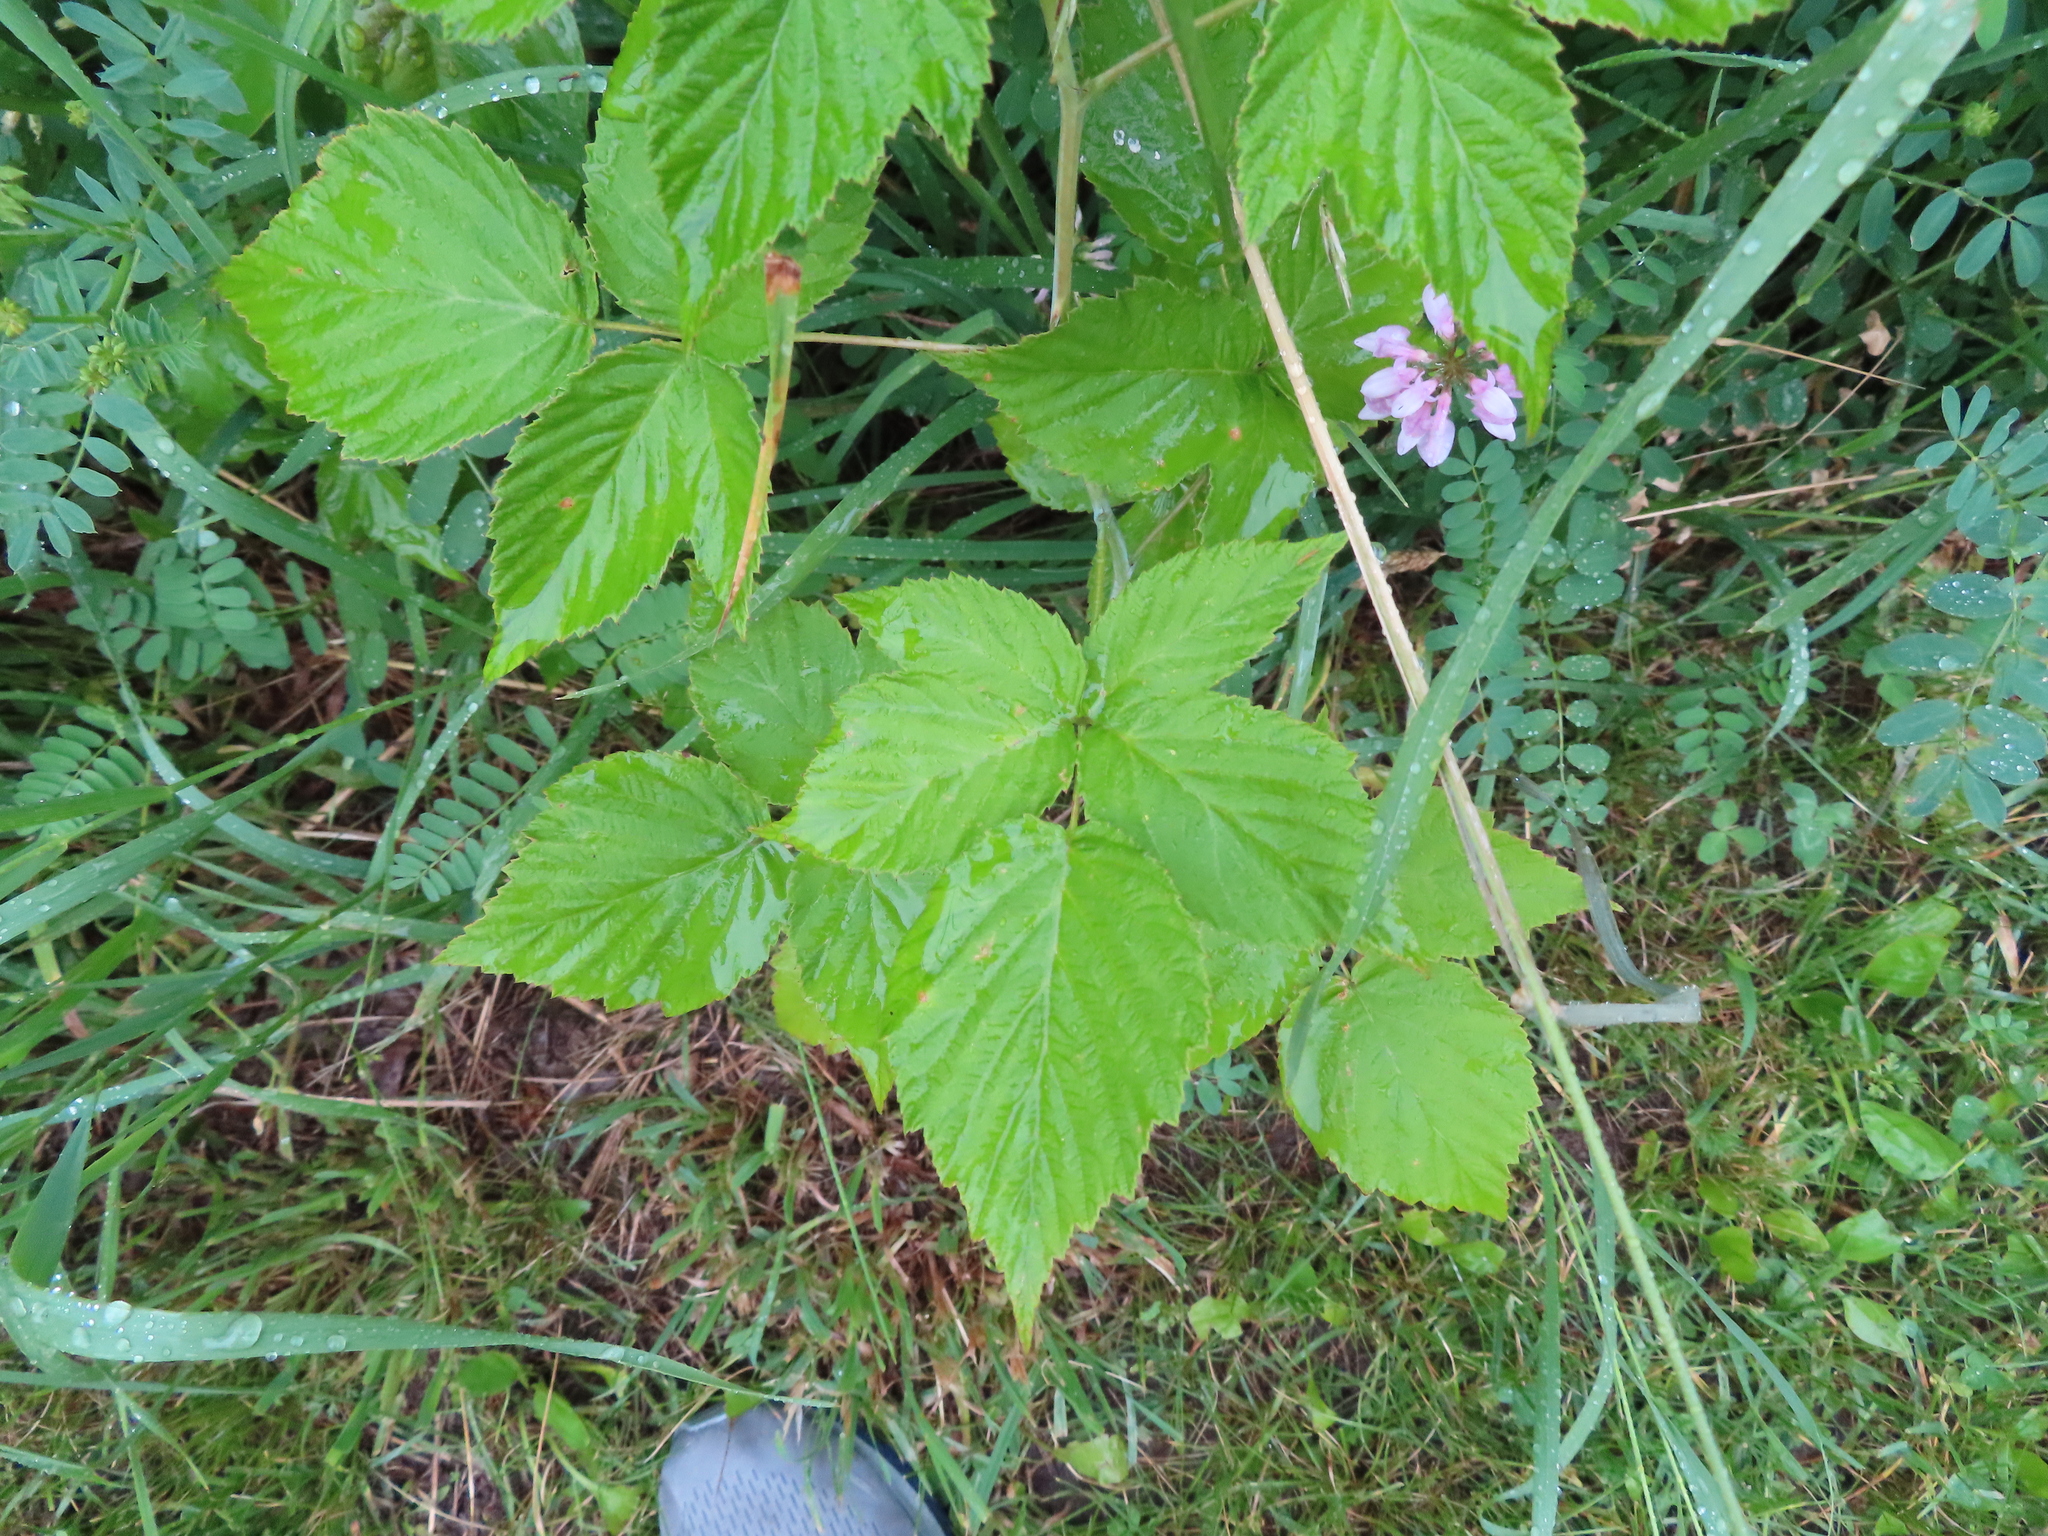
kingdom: Plantae
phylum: Tracheophyta
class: Magnoliopsida
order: Rosales
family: Rosaceae
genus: Rubus
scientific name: Rubus occidentalis
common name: Black raspberry
